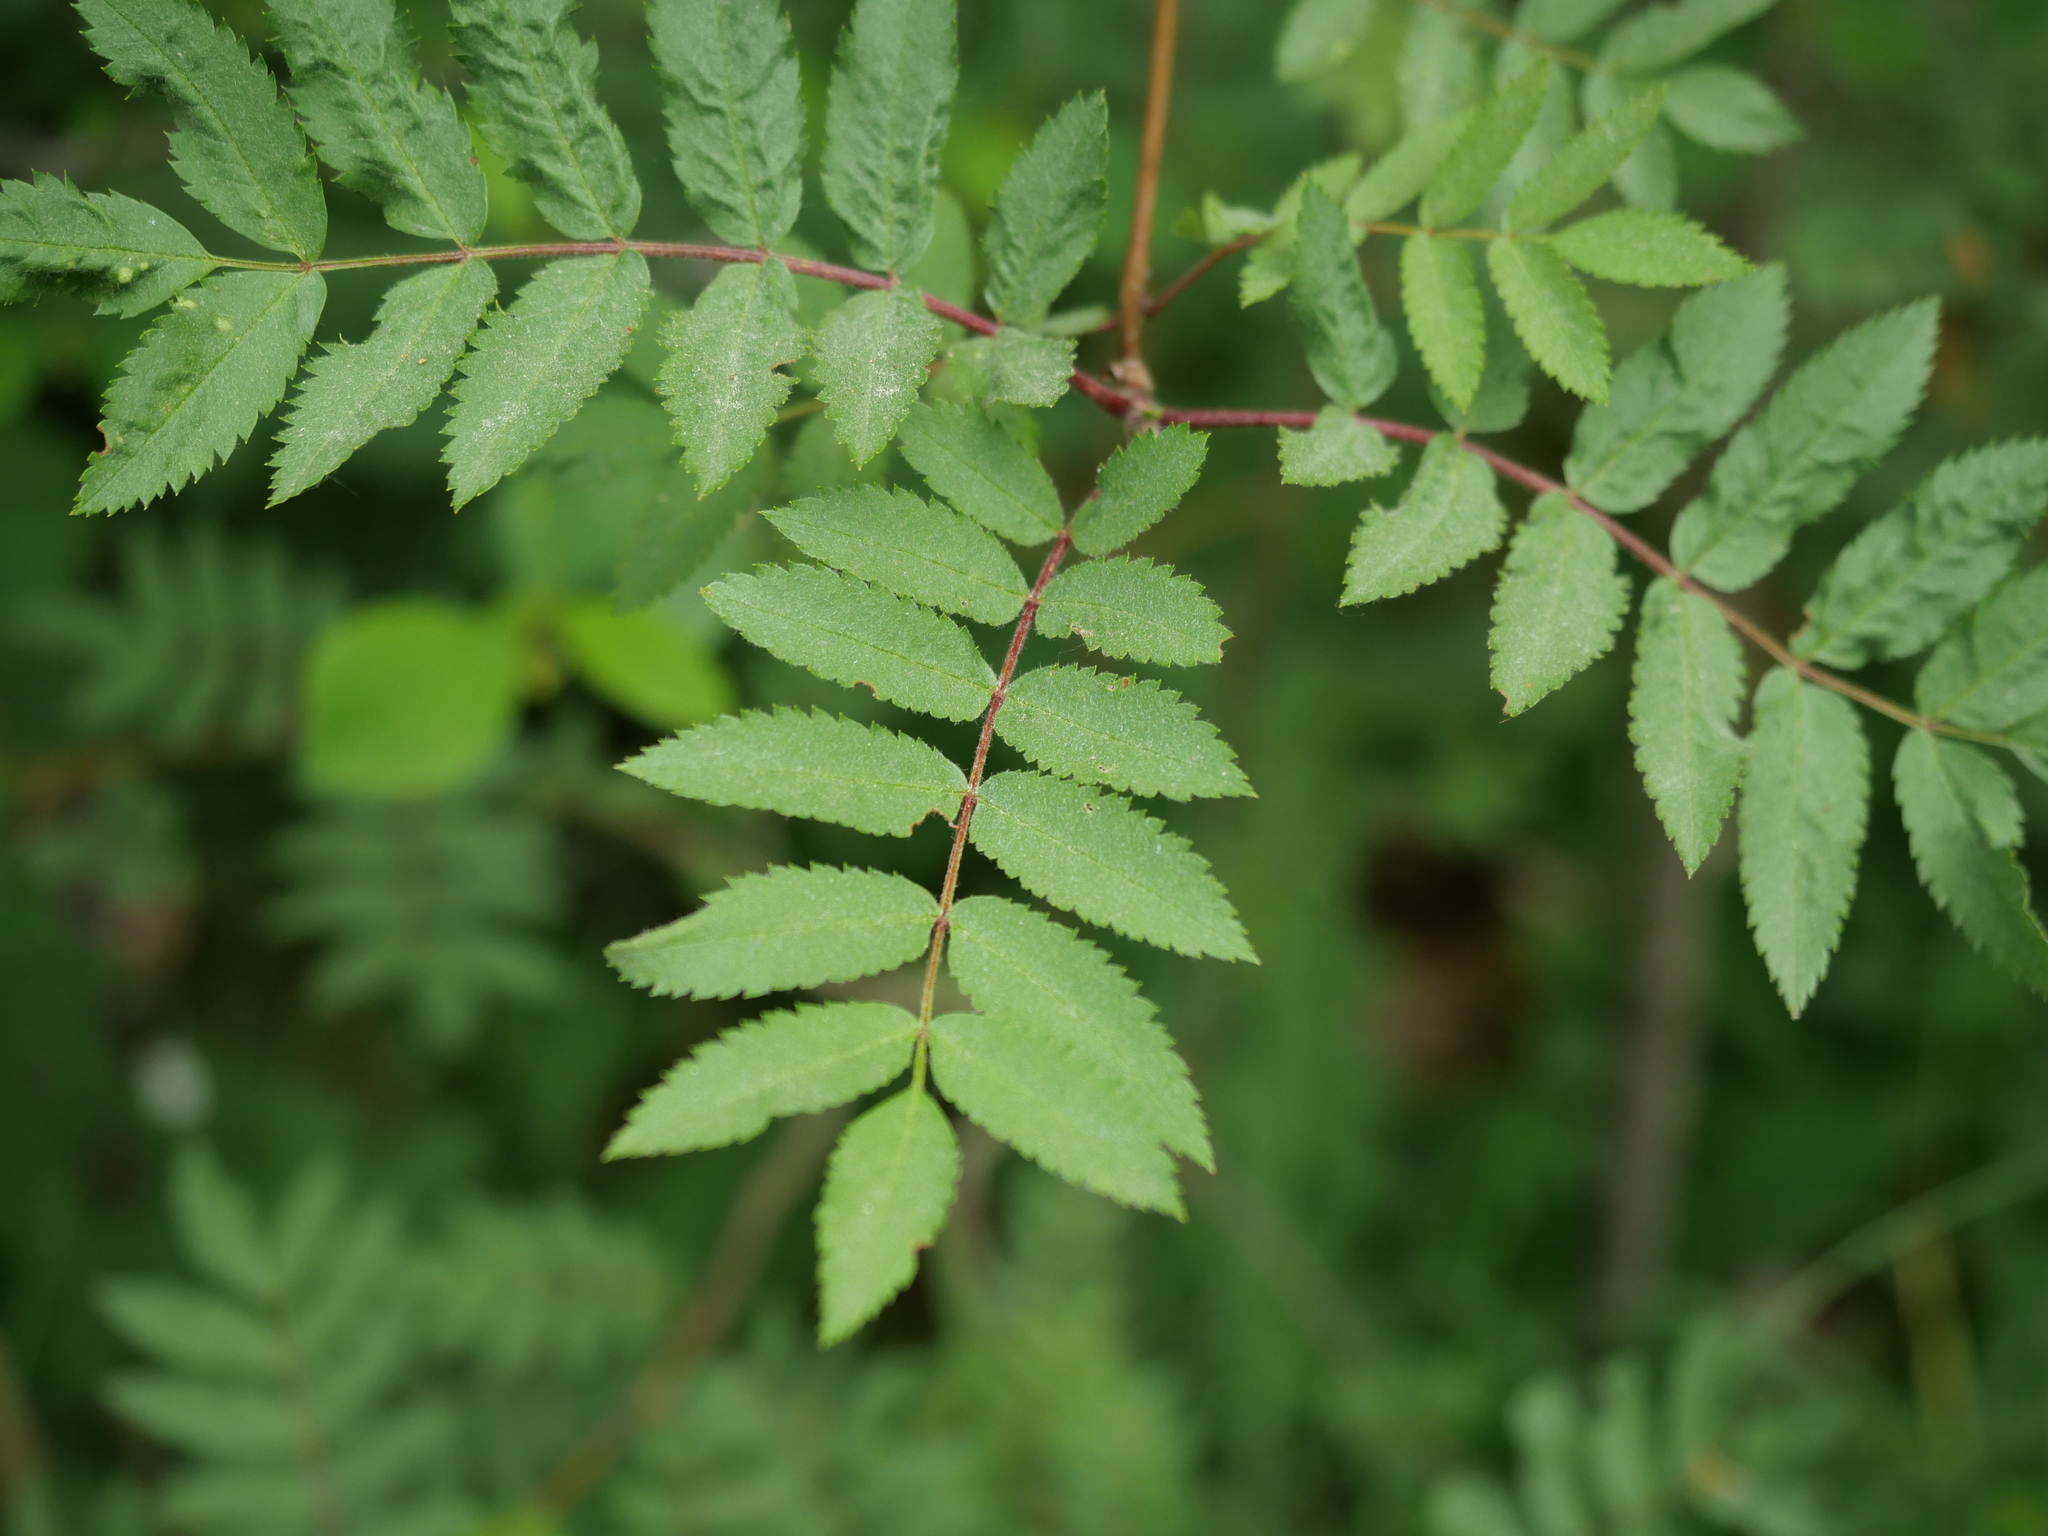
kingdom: Plantae
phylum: Tracheophyta
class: Magnoliopsida
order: Rosales
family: Rosaceae
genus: Sorbus
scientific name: Sorbus aucuparia
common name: Rowan
